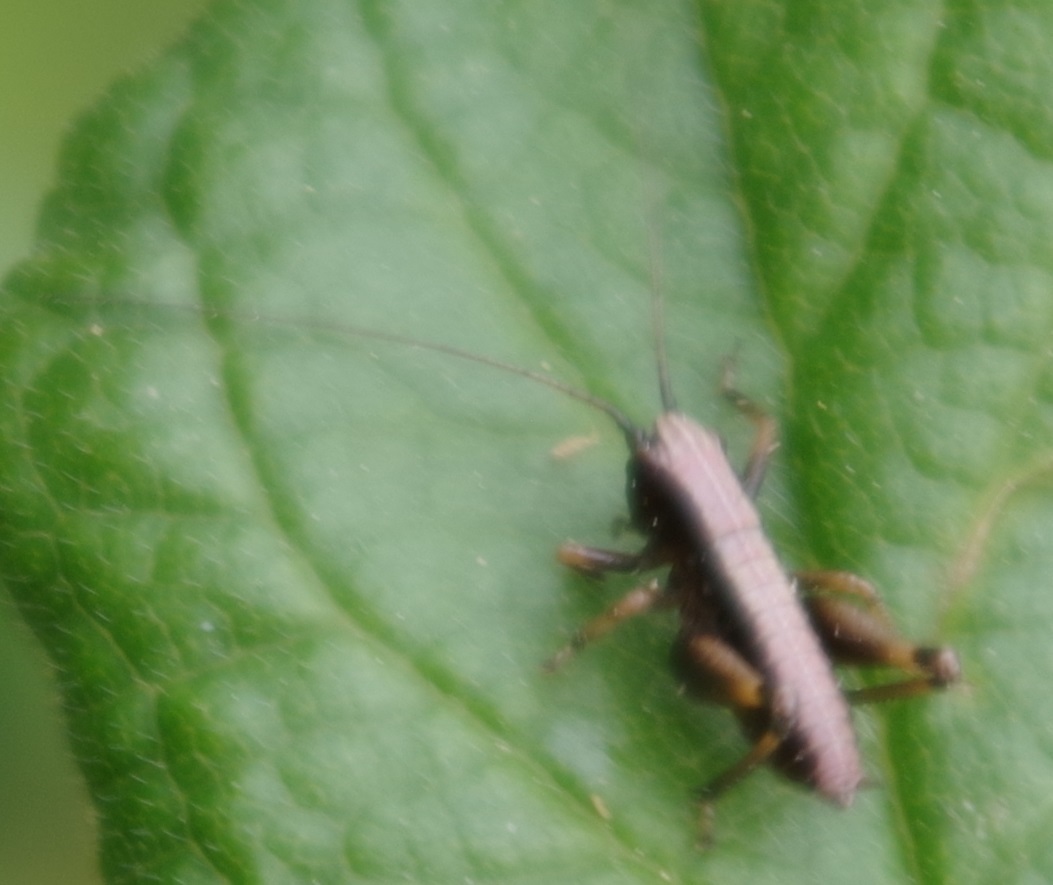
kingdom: Animalia
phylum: Arthropoda
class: Insecta
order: Orthoptera
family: Tettigoniidae
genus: Pholidoptera
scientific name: Pholidoptera griseoaptera
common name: Dark bush-cricket
